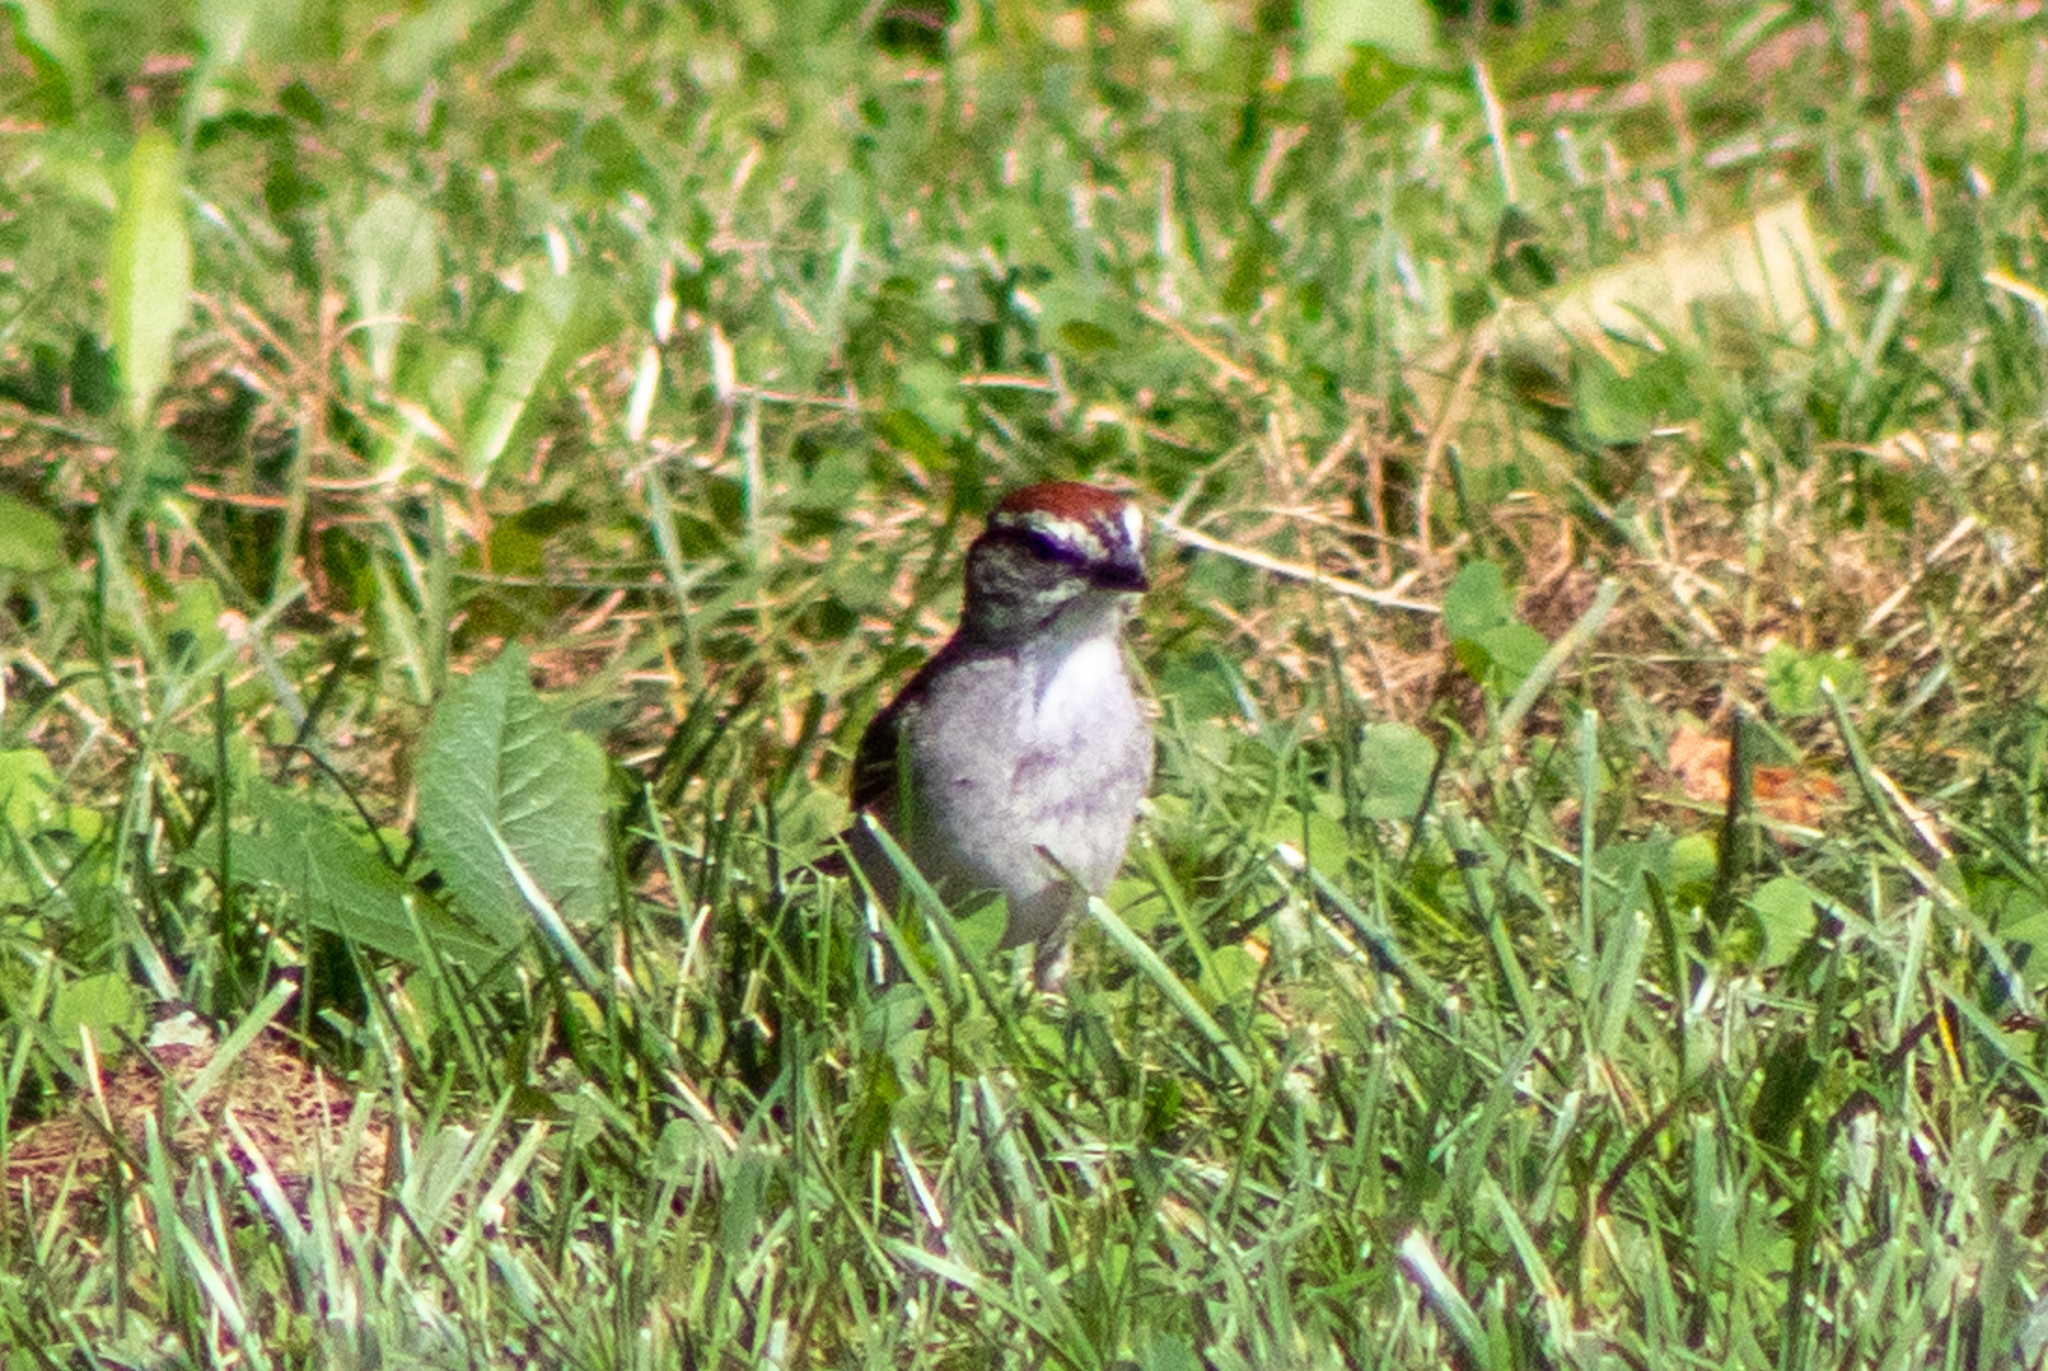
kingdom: Animalia
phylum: Chordata
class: Aves
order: Passeriformes
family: Passerellidae
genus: Spizella
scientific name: Spizella passerina
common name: Chipping sparrow
